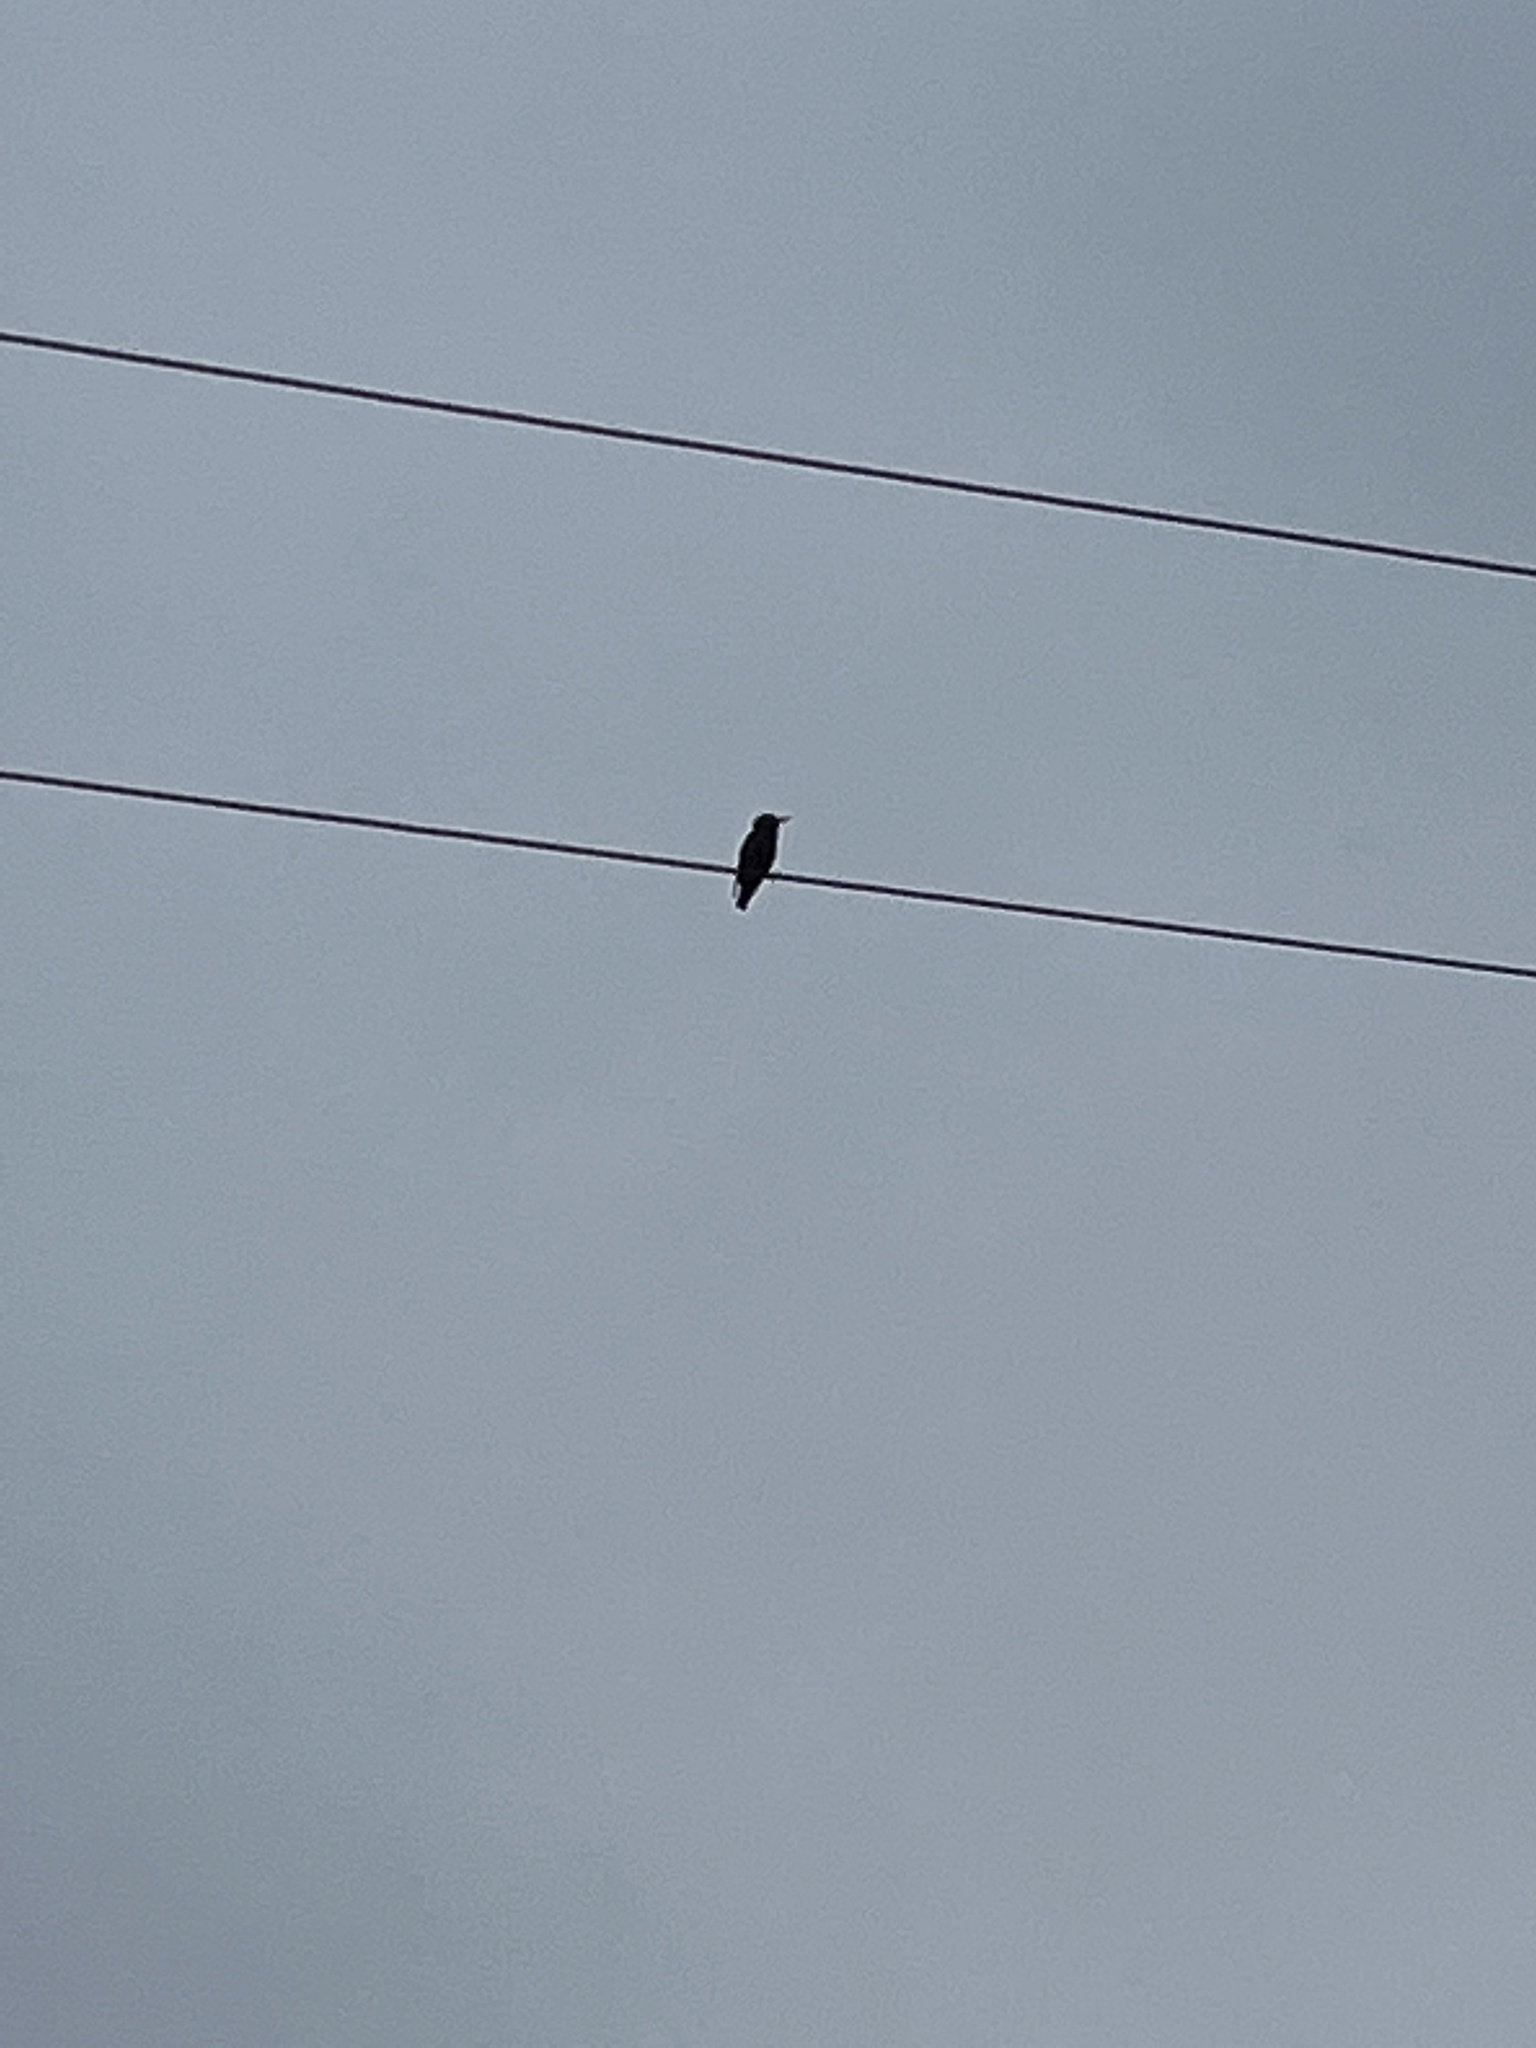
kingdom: Animalia
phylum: Chordata
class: Aves
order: Passeriformes
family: Sturnidae
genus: Sturnus
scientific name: Sturnus vulgaris
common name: Common starling
